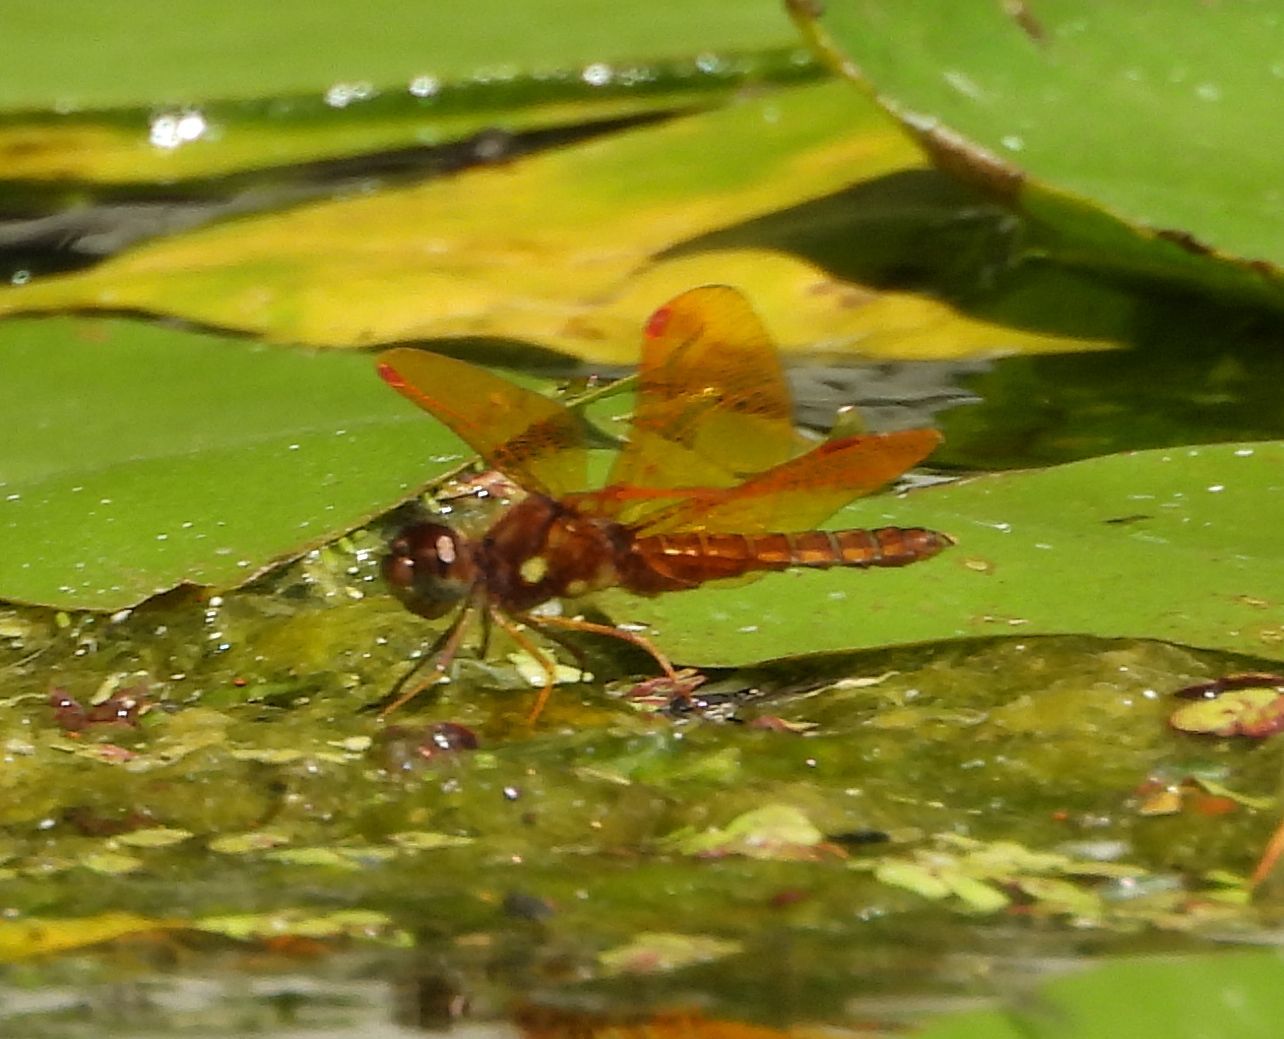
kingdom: Animalia
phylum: Arthropoda
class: Insecta
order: Odonata
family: Libellulidae
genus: Perithemis
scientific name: Perithemis tenera
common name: Eastern amberwing
